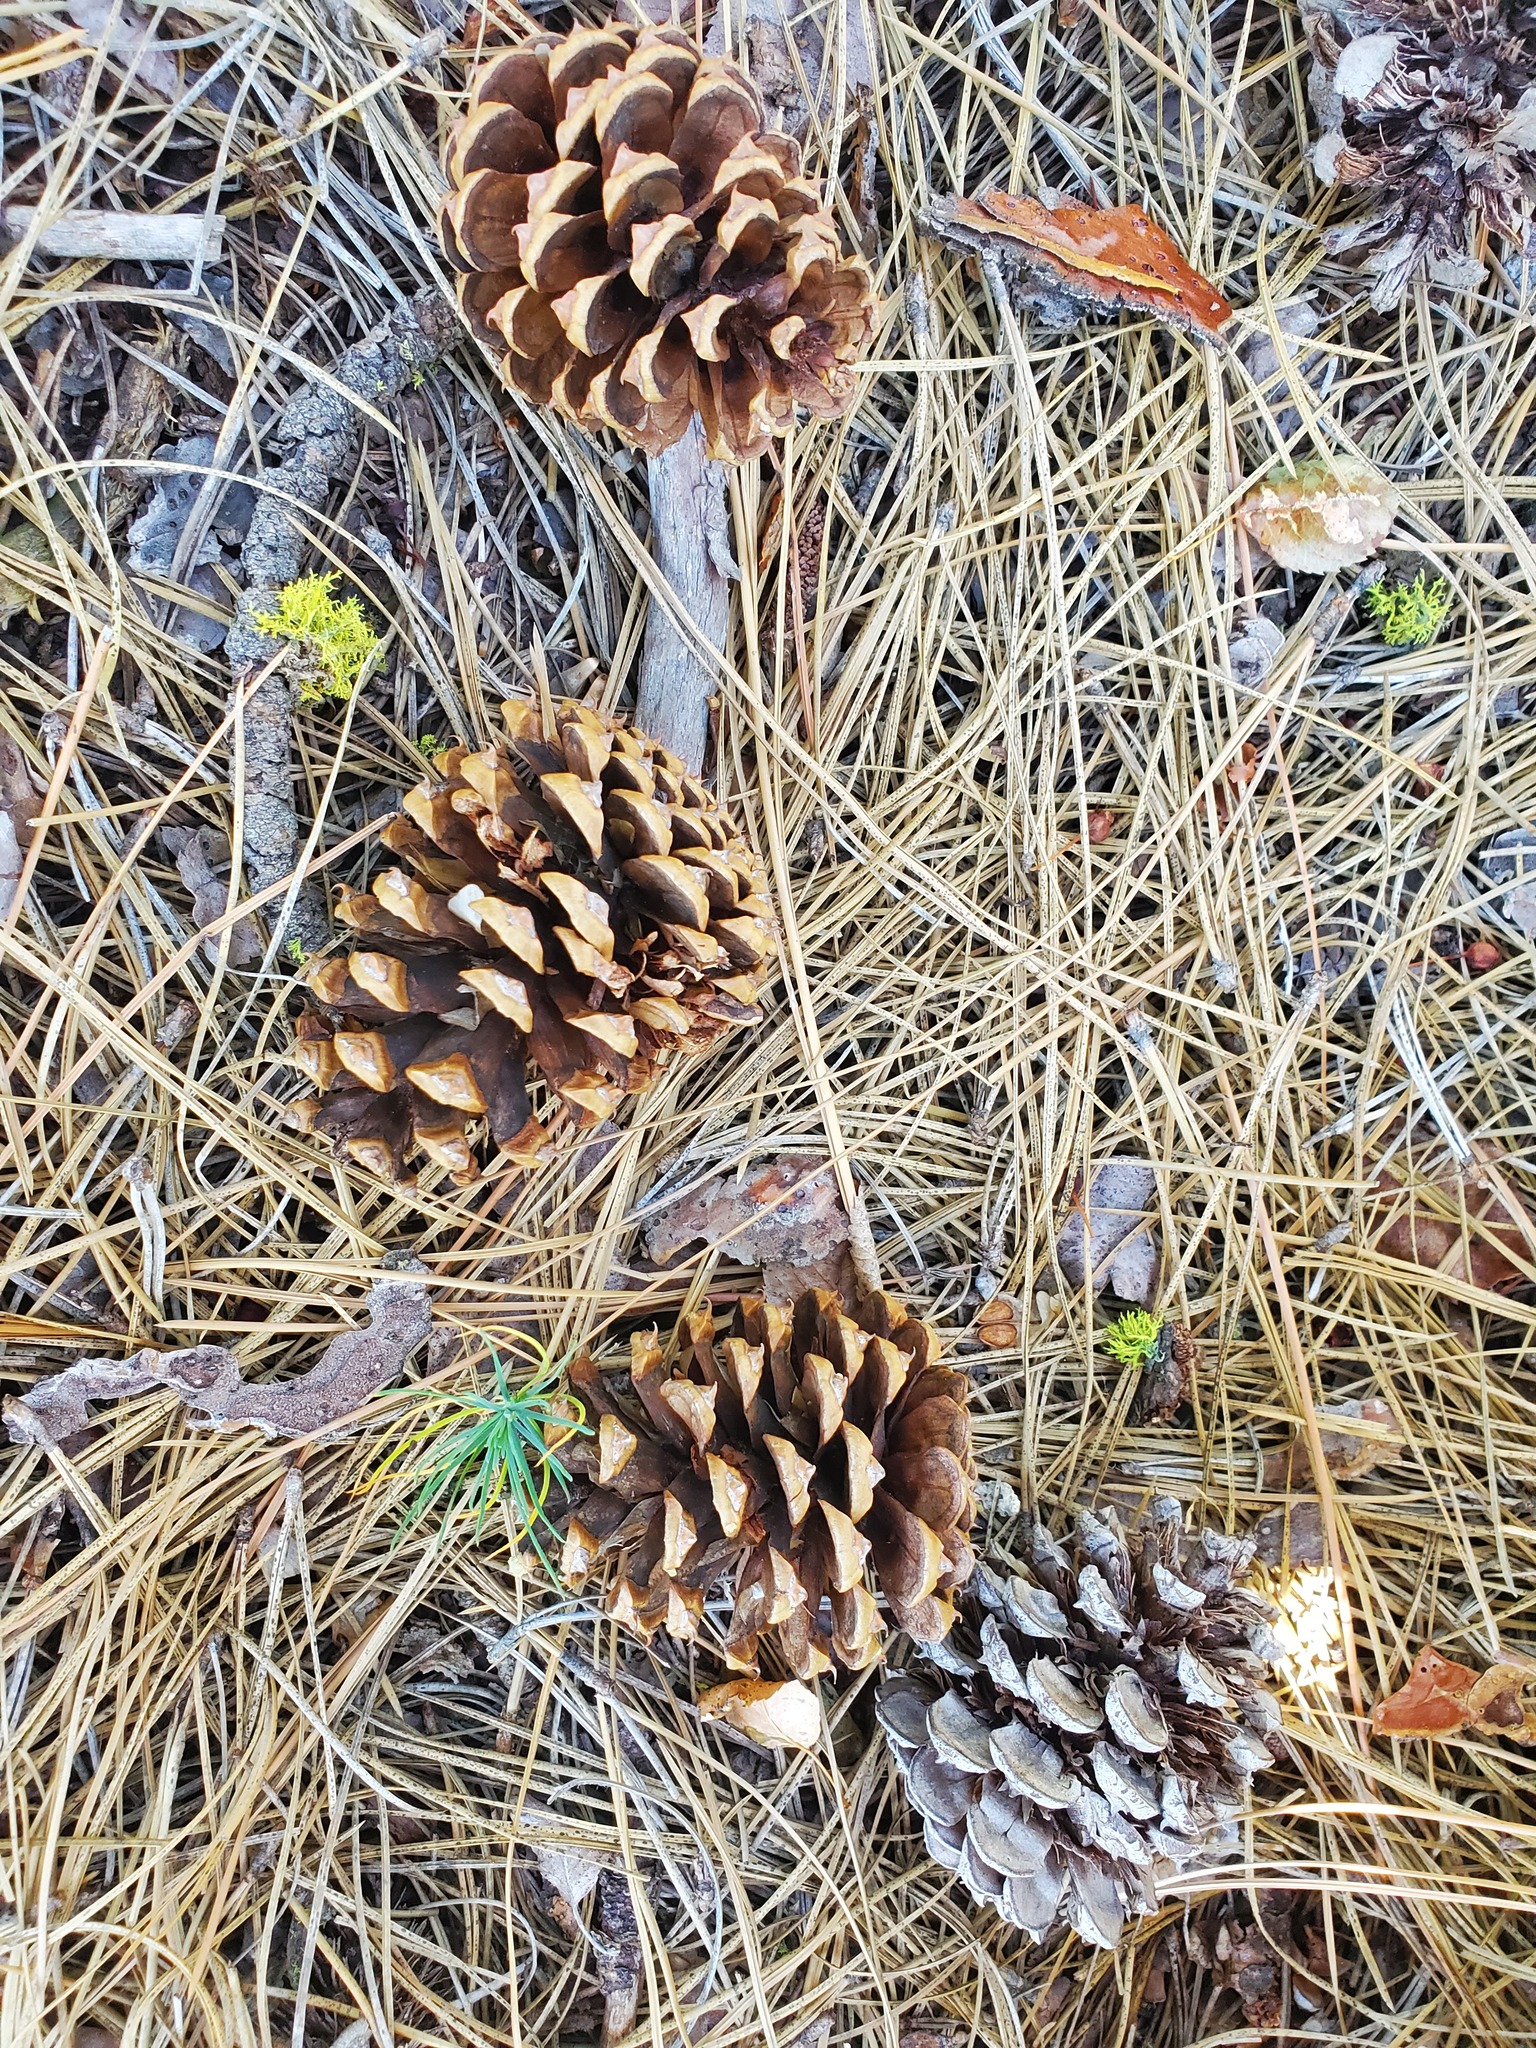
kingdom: Plantae
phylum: Tracheophyta
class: Pinopsida
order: Pinales
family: Pinaceae
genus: Pinus
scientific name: Pinus ponderosa
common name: Western yellow-pine
